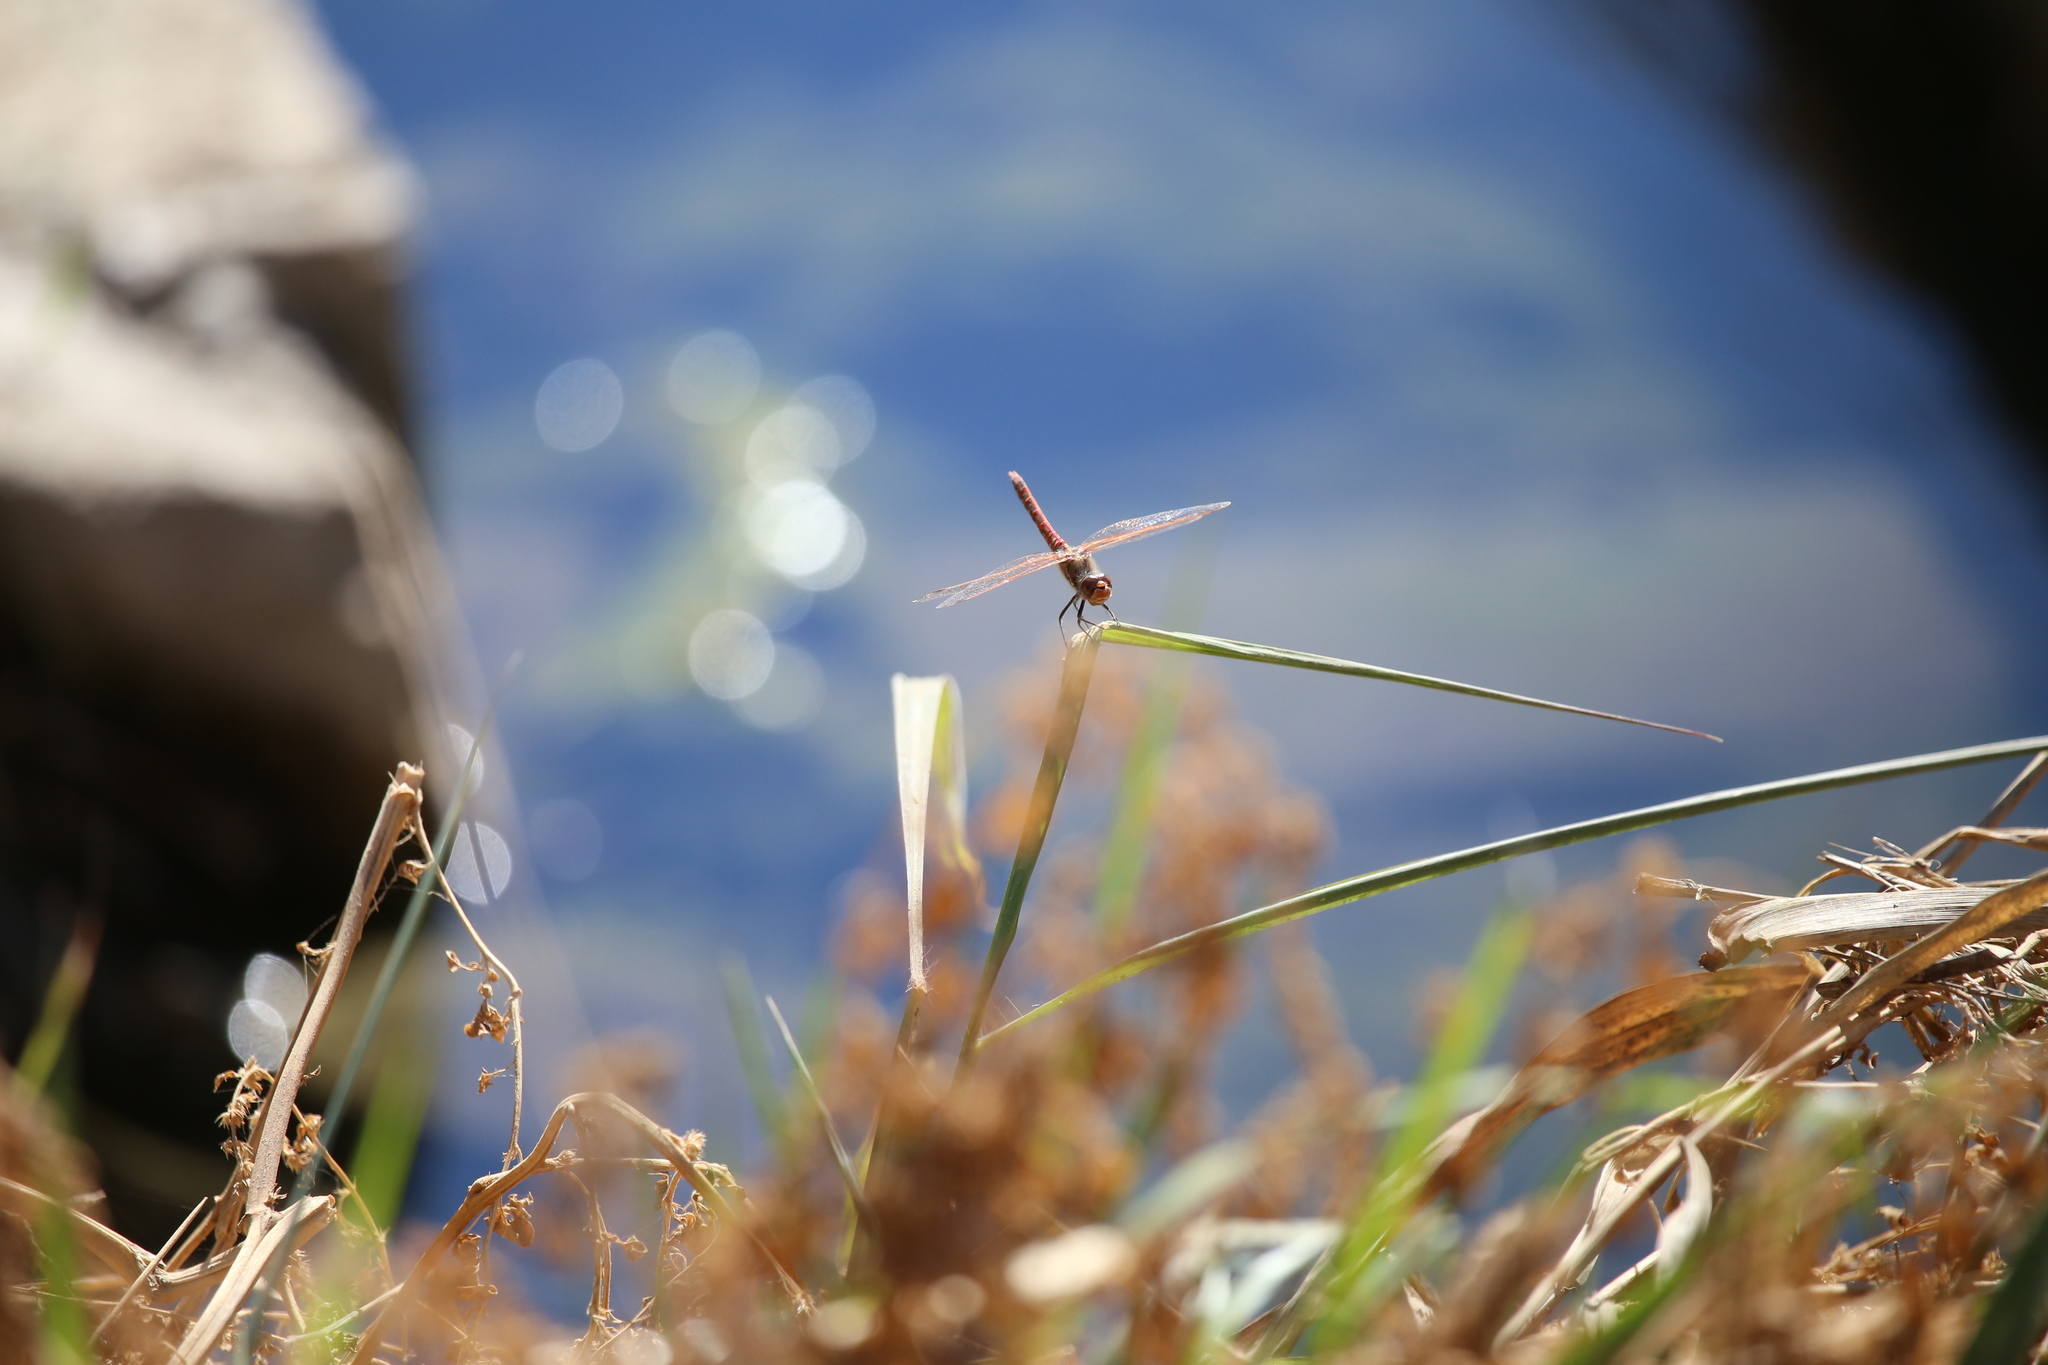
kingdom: Animalia
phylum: Arthropoda
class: Insecta
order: Odonata
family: Libellulidae
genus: Sympetrum
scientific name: Sympetrum corruptum
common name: Variegated meadowhawk
